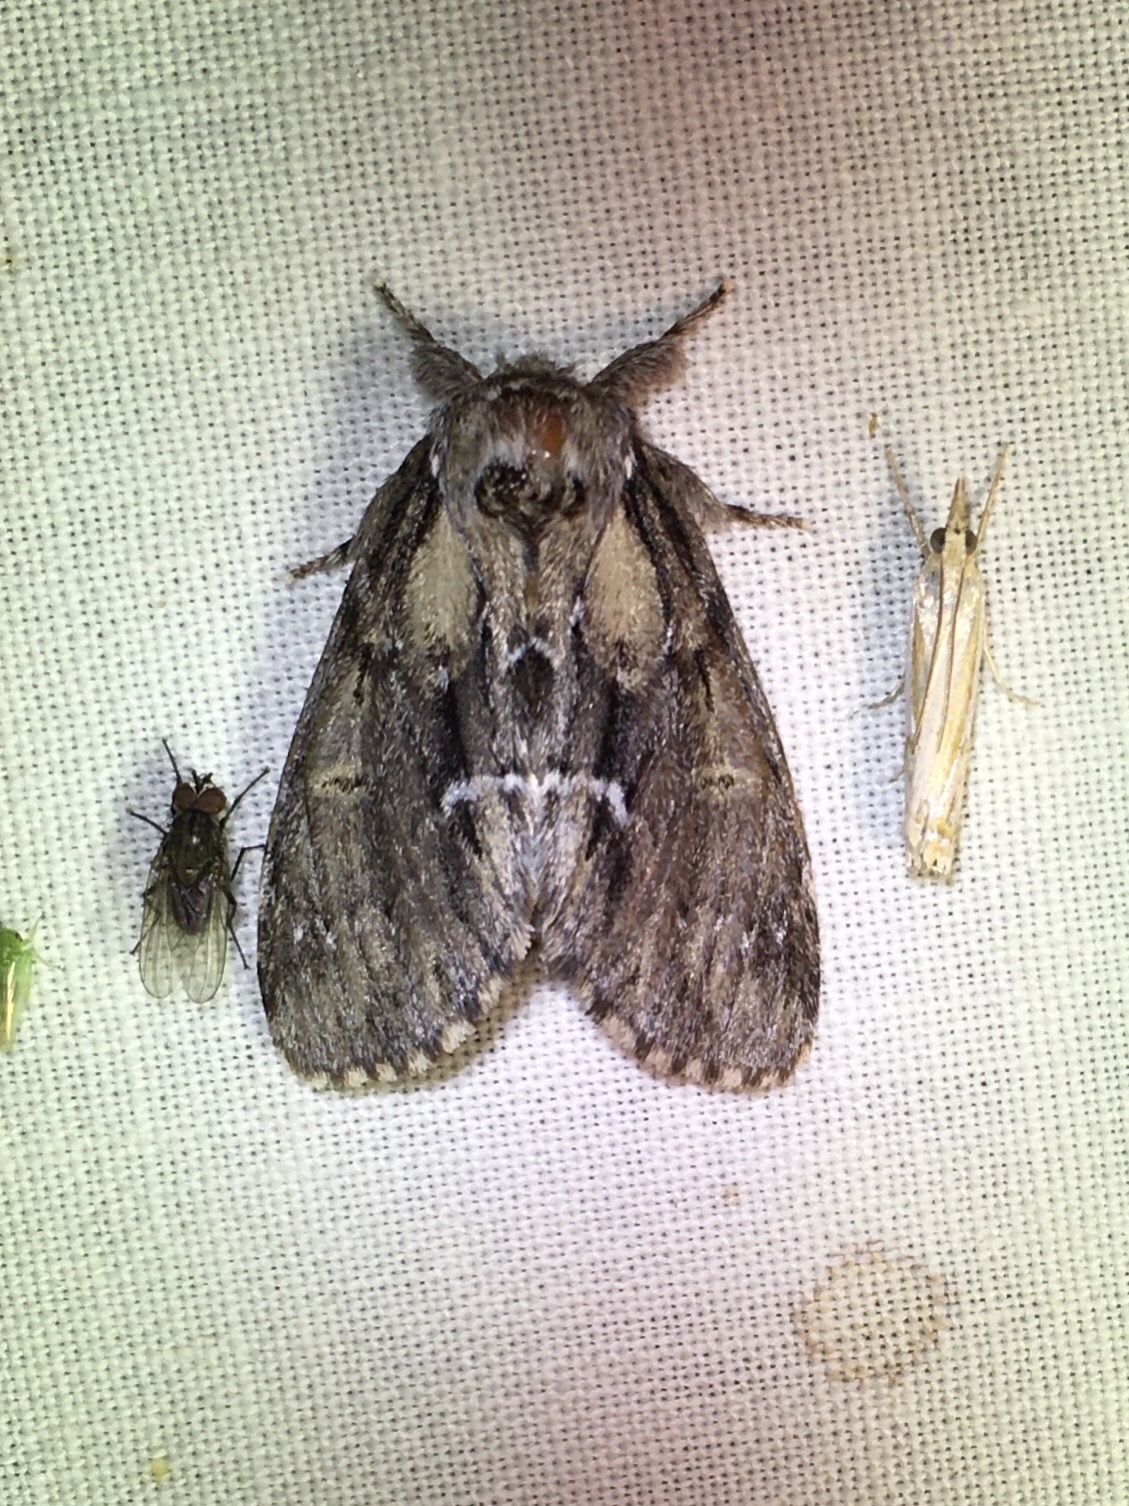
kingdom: Animalia
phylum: Arthropoda
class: Insecta
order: Lepidoptera
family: Notodontidae
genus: Paraeschra
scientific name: Paraeschra georgica
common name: Georgian prominent
